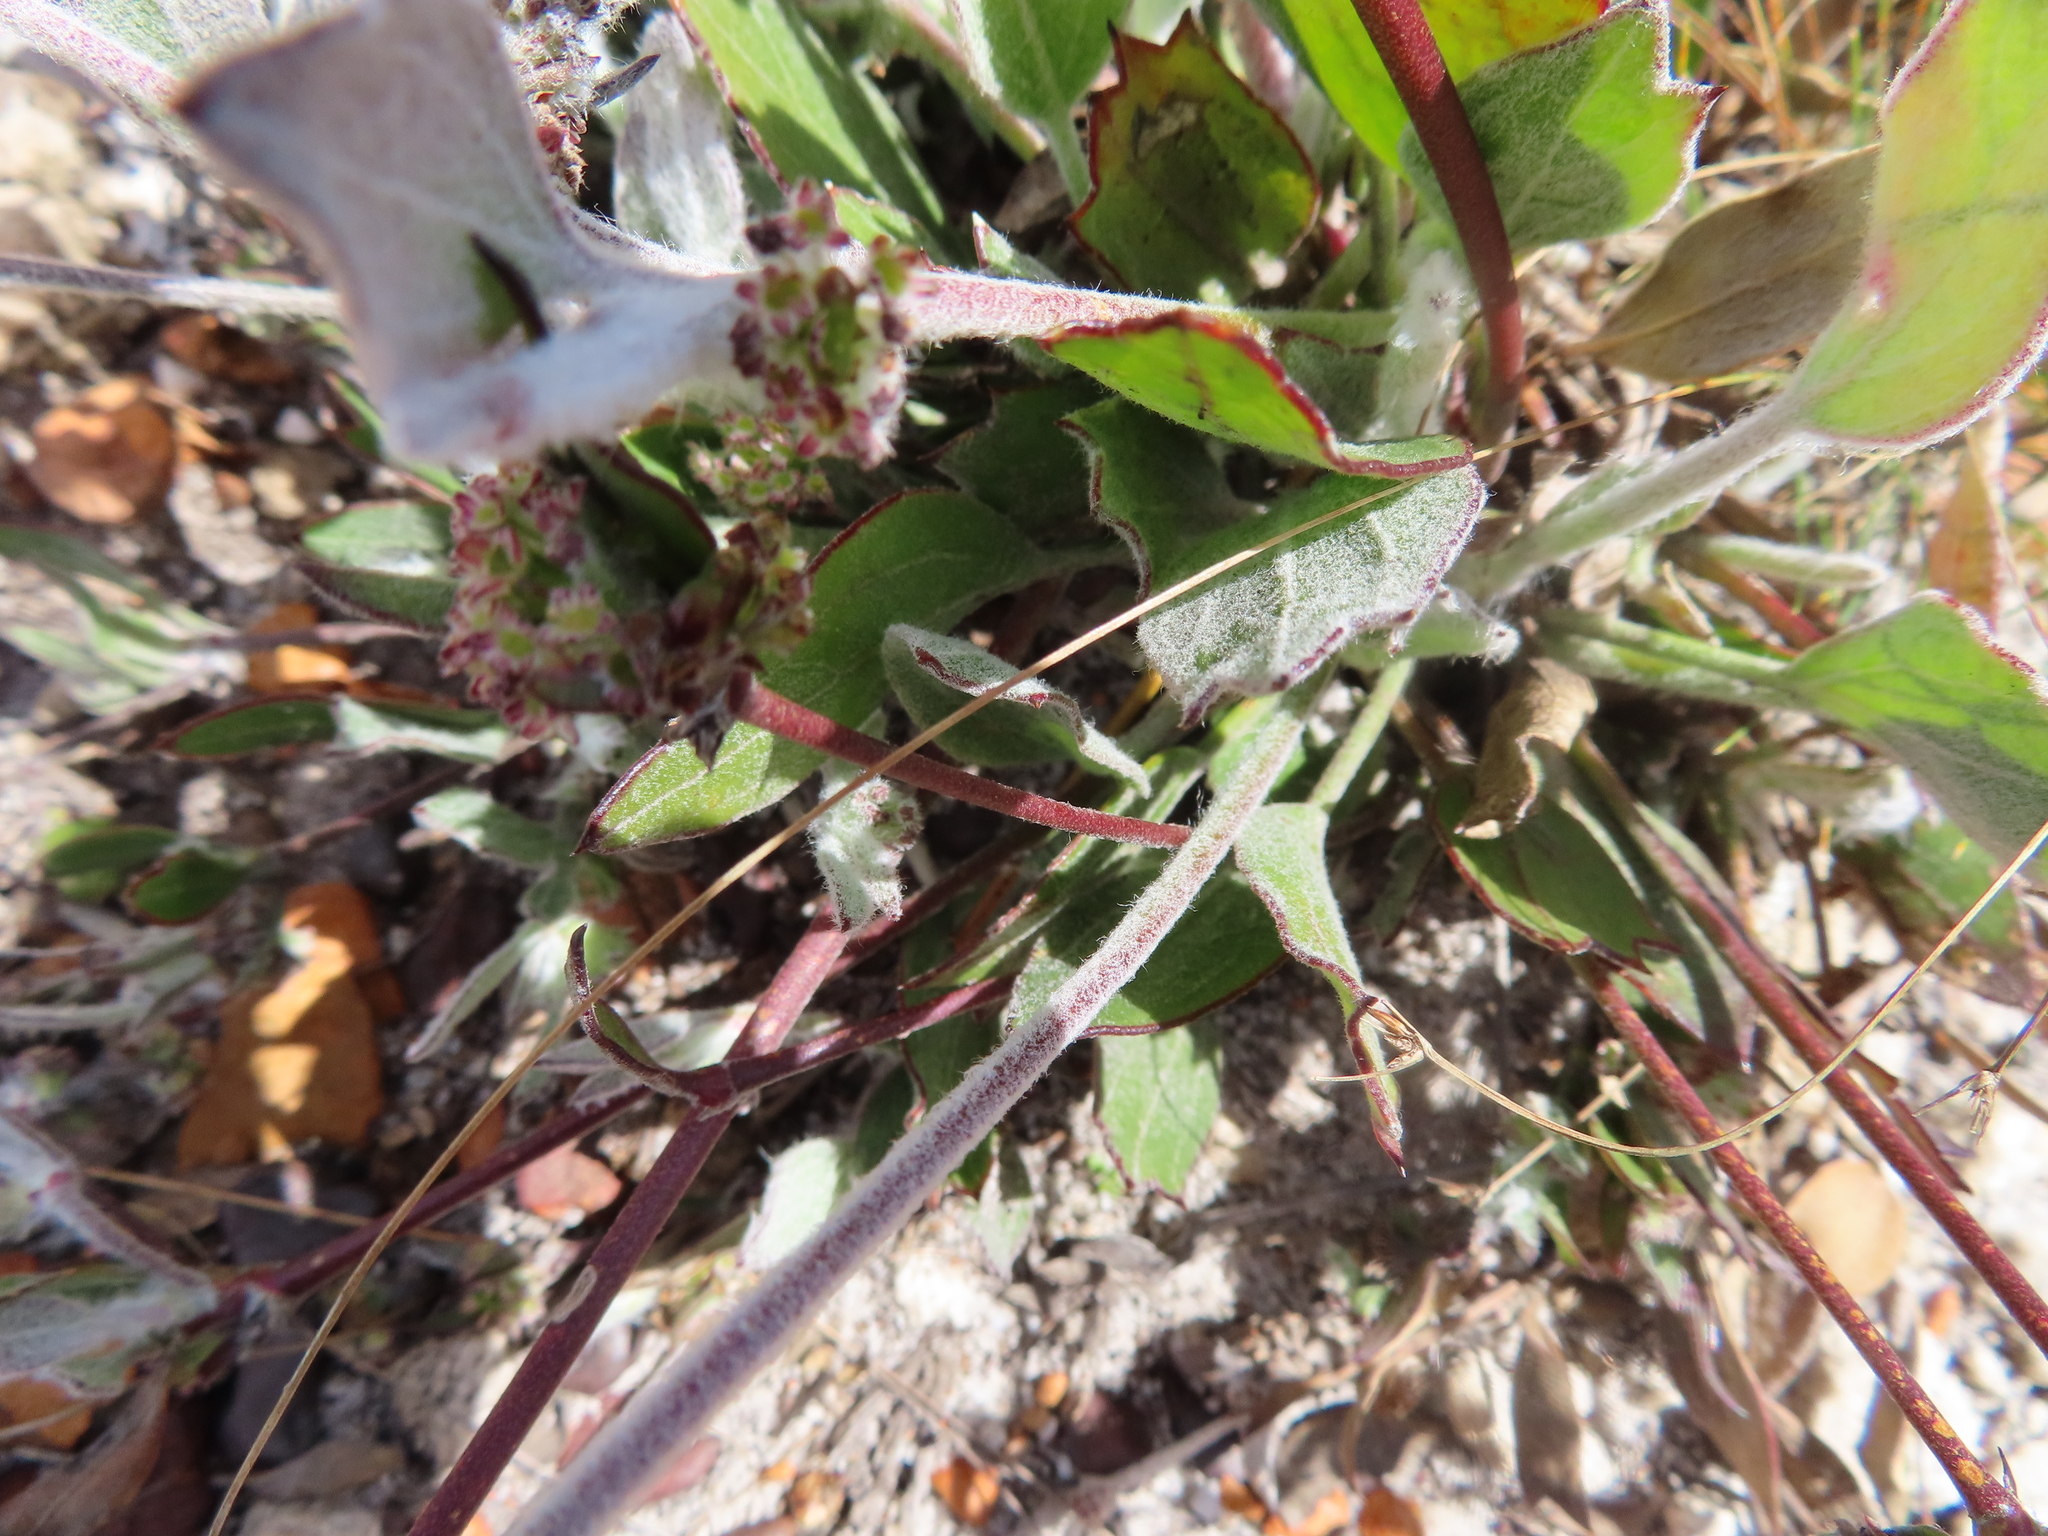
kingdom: Plantae
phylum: Tracheophyta
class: Magnoliopsida
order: Apiales
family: Apiaceae
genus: Centella
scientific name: Centella difformis
